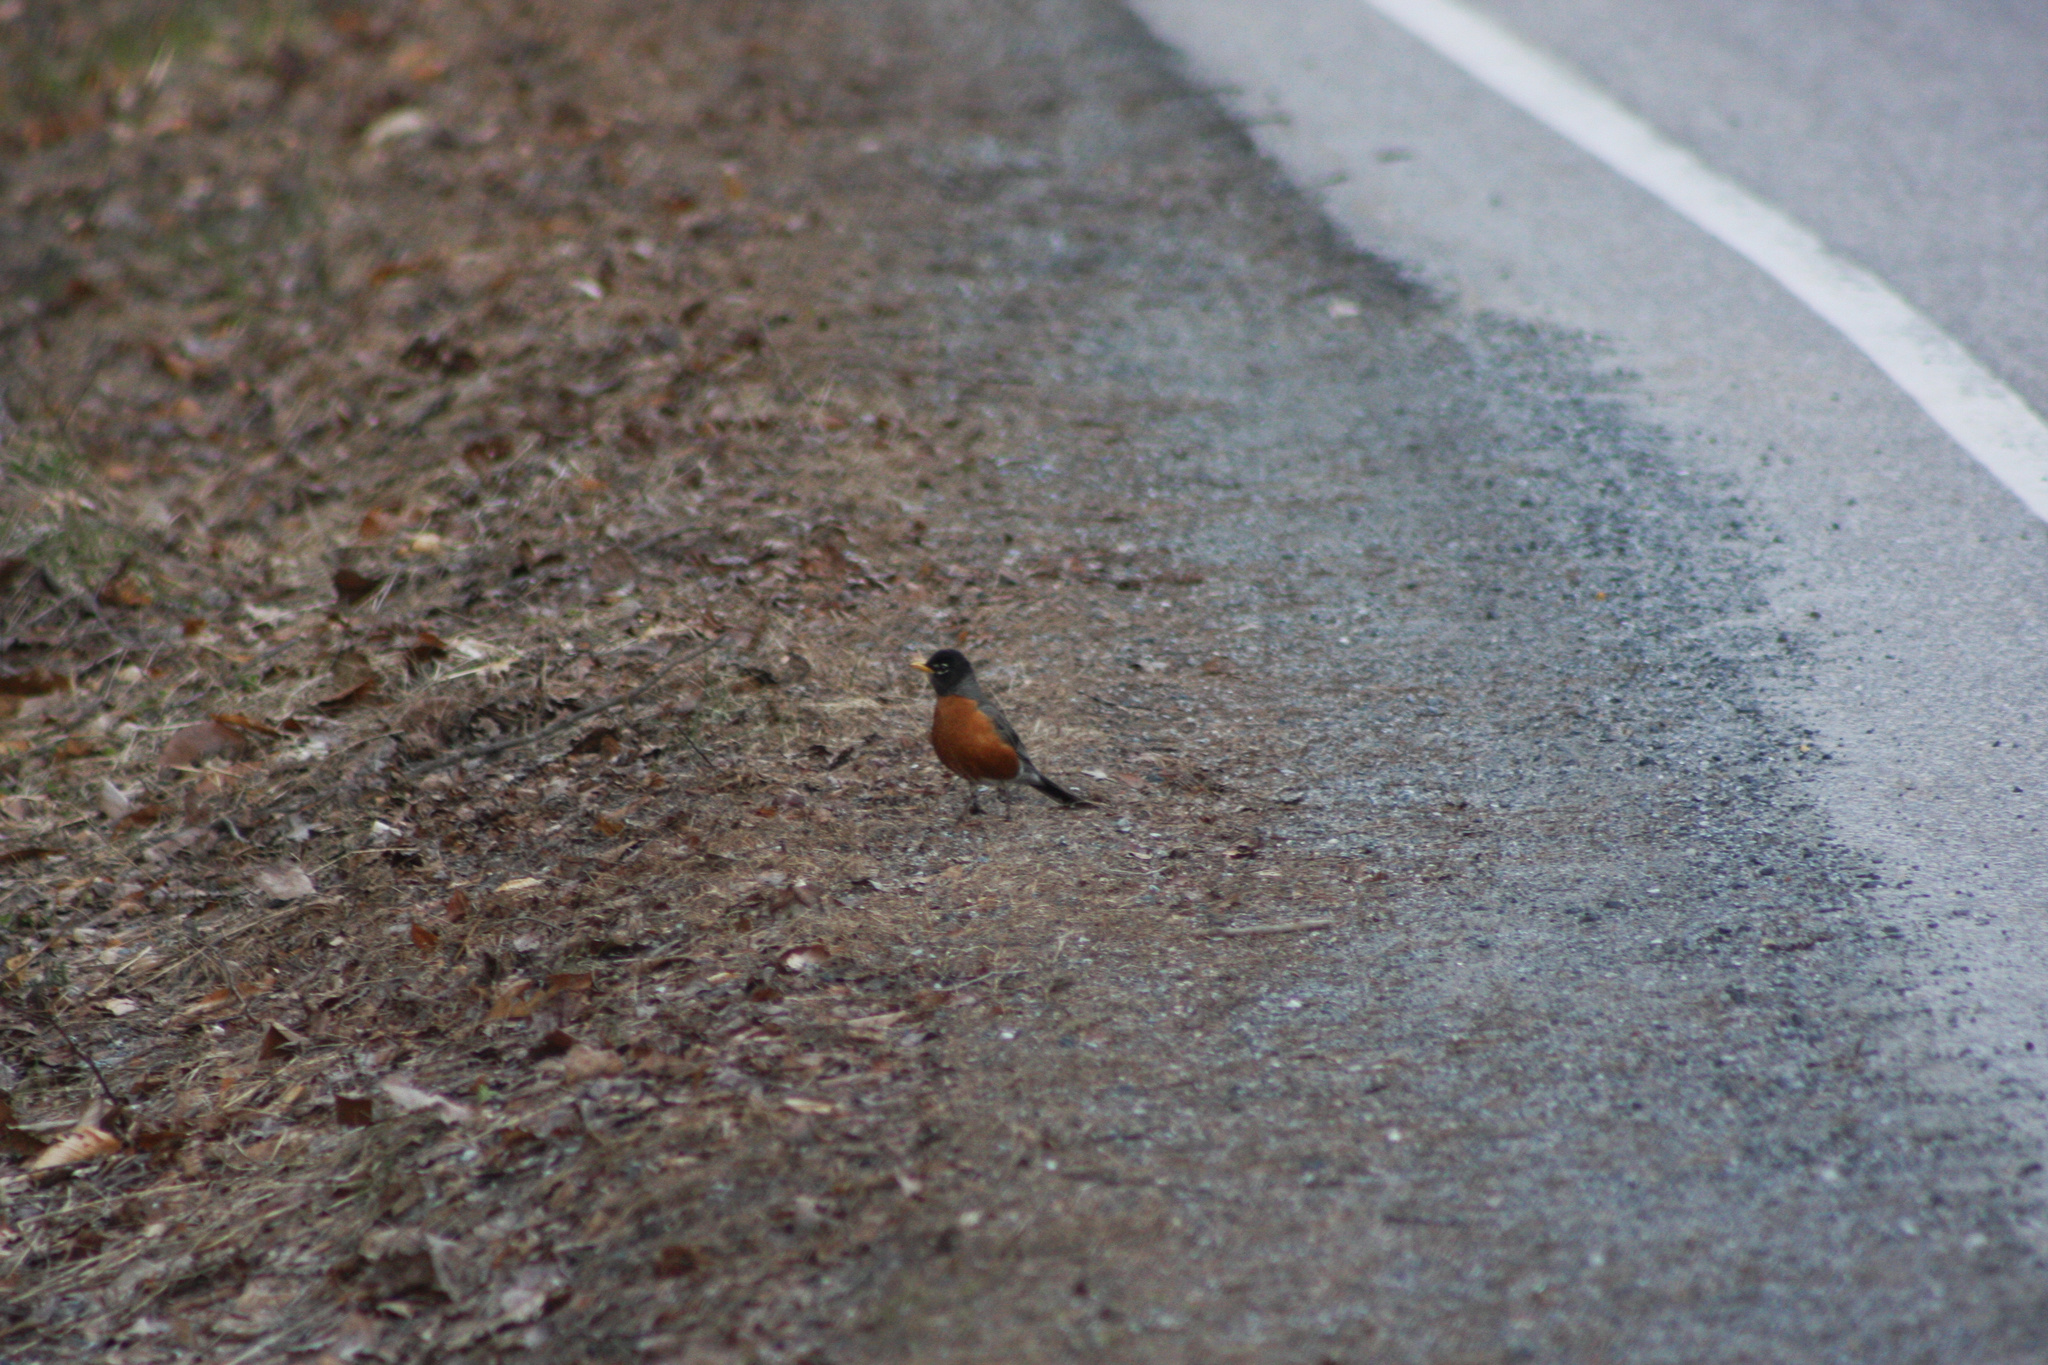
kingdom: Animalia
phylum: Chordata
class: Aves
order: Passeriformes
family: Turdidae
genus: Turdus
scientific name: Turdus migratorius
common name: American robin
